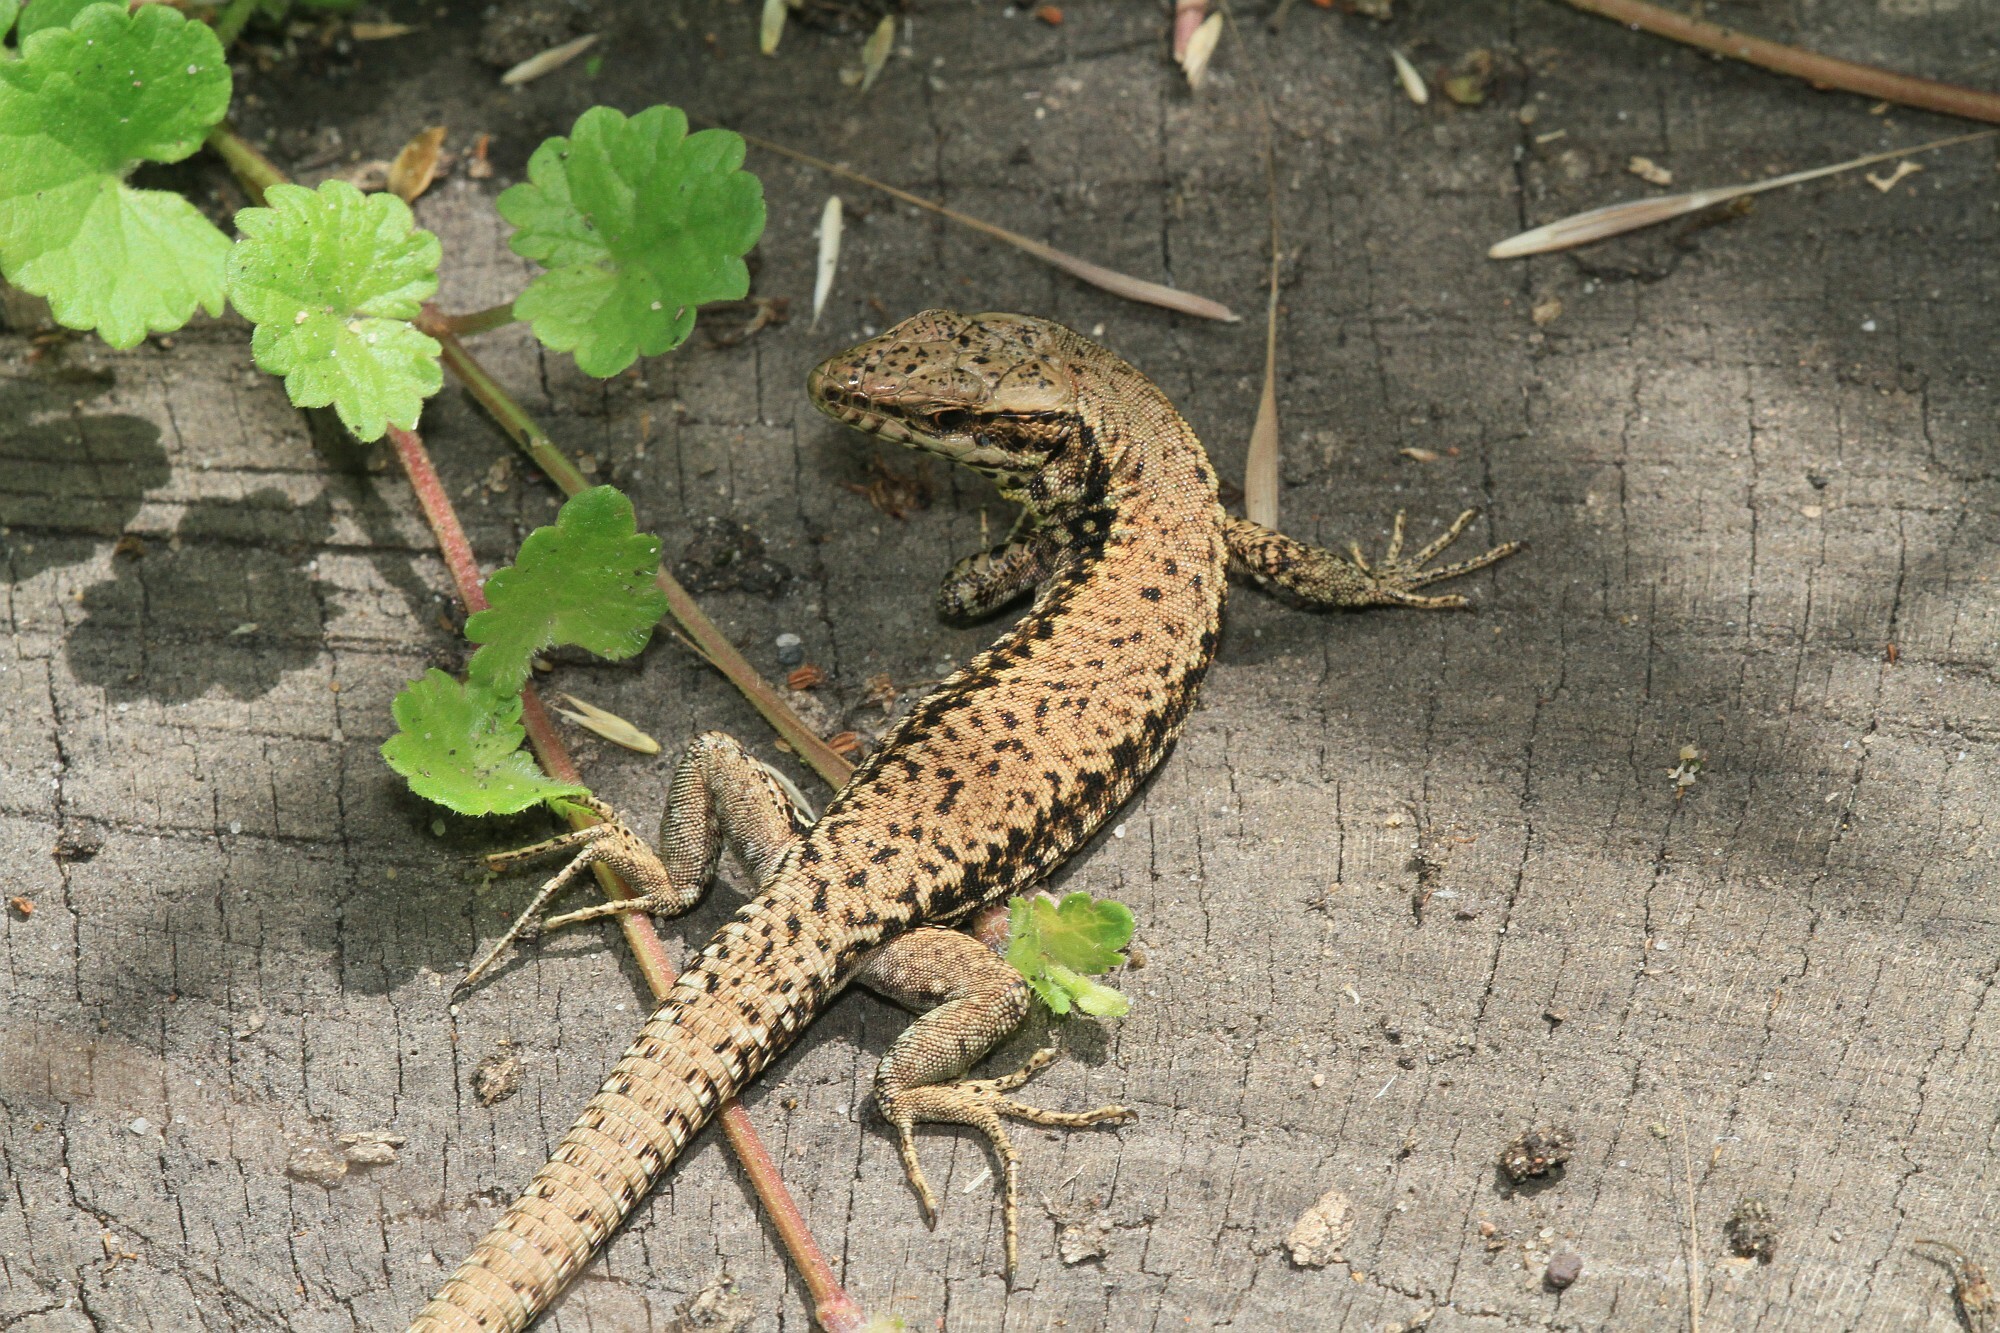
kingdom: Animalia
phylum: Chordata
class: Squamata
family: Lacertidae
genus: Podarcis
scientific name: Podarcis muralis
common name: Common wall lizard
